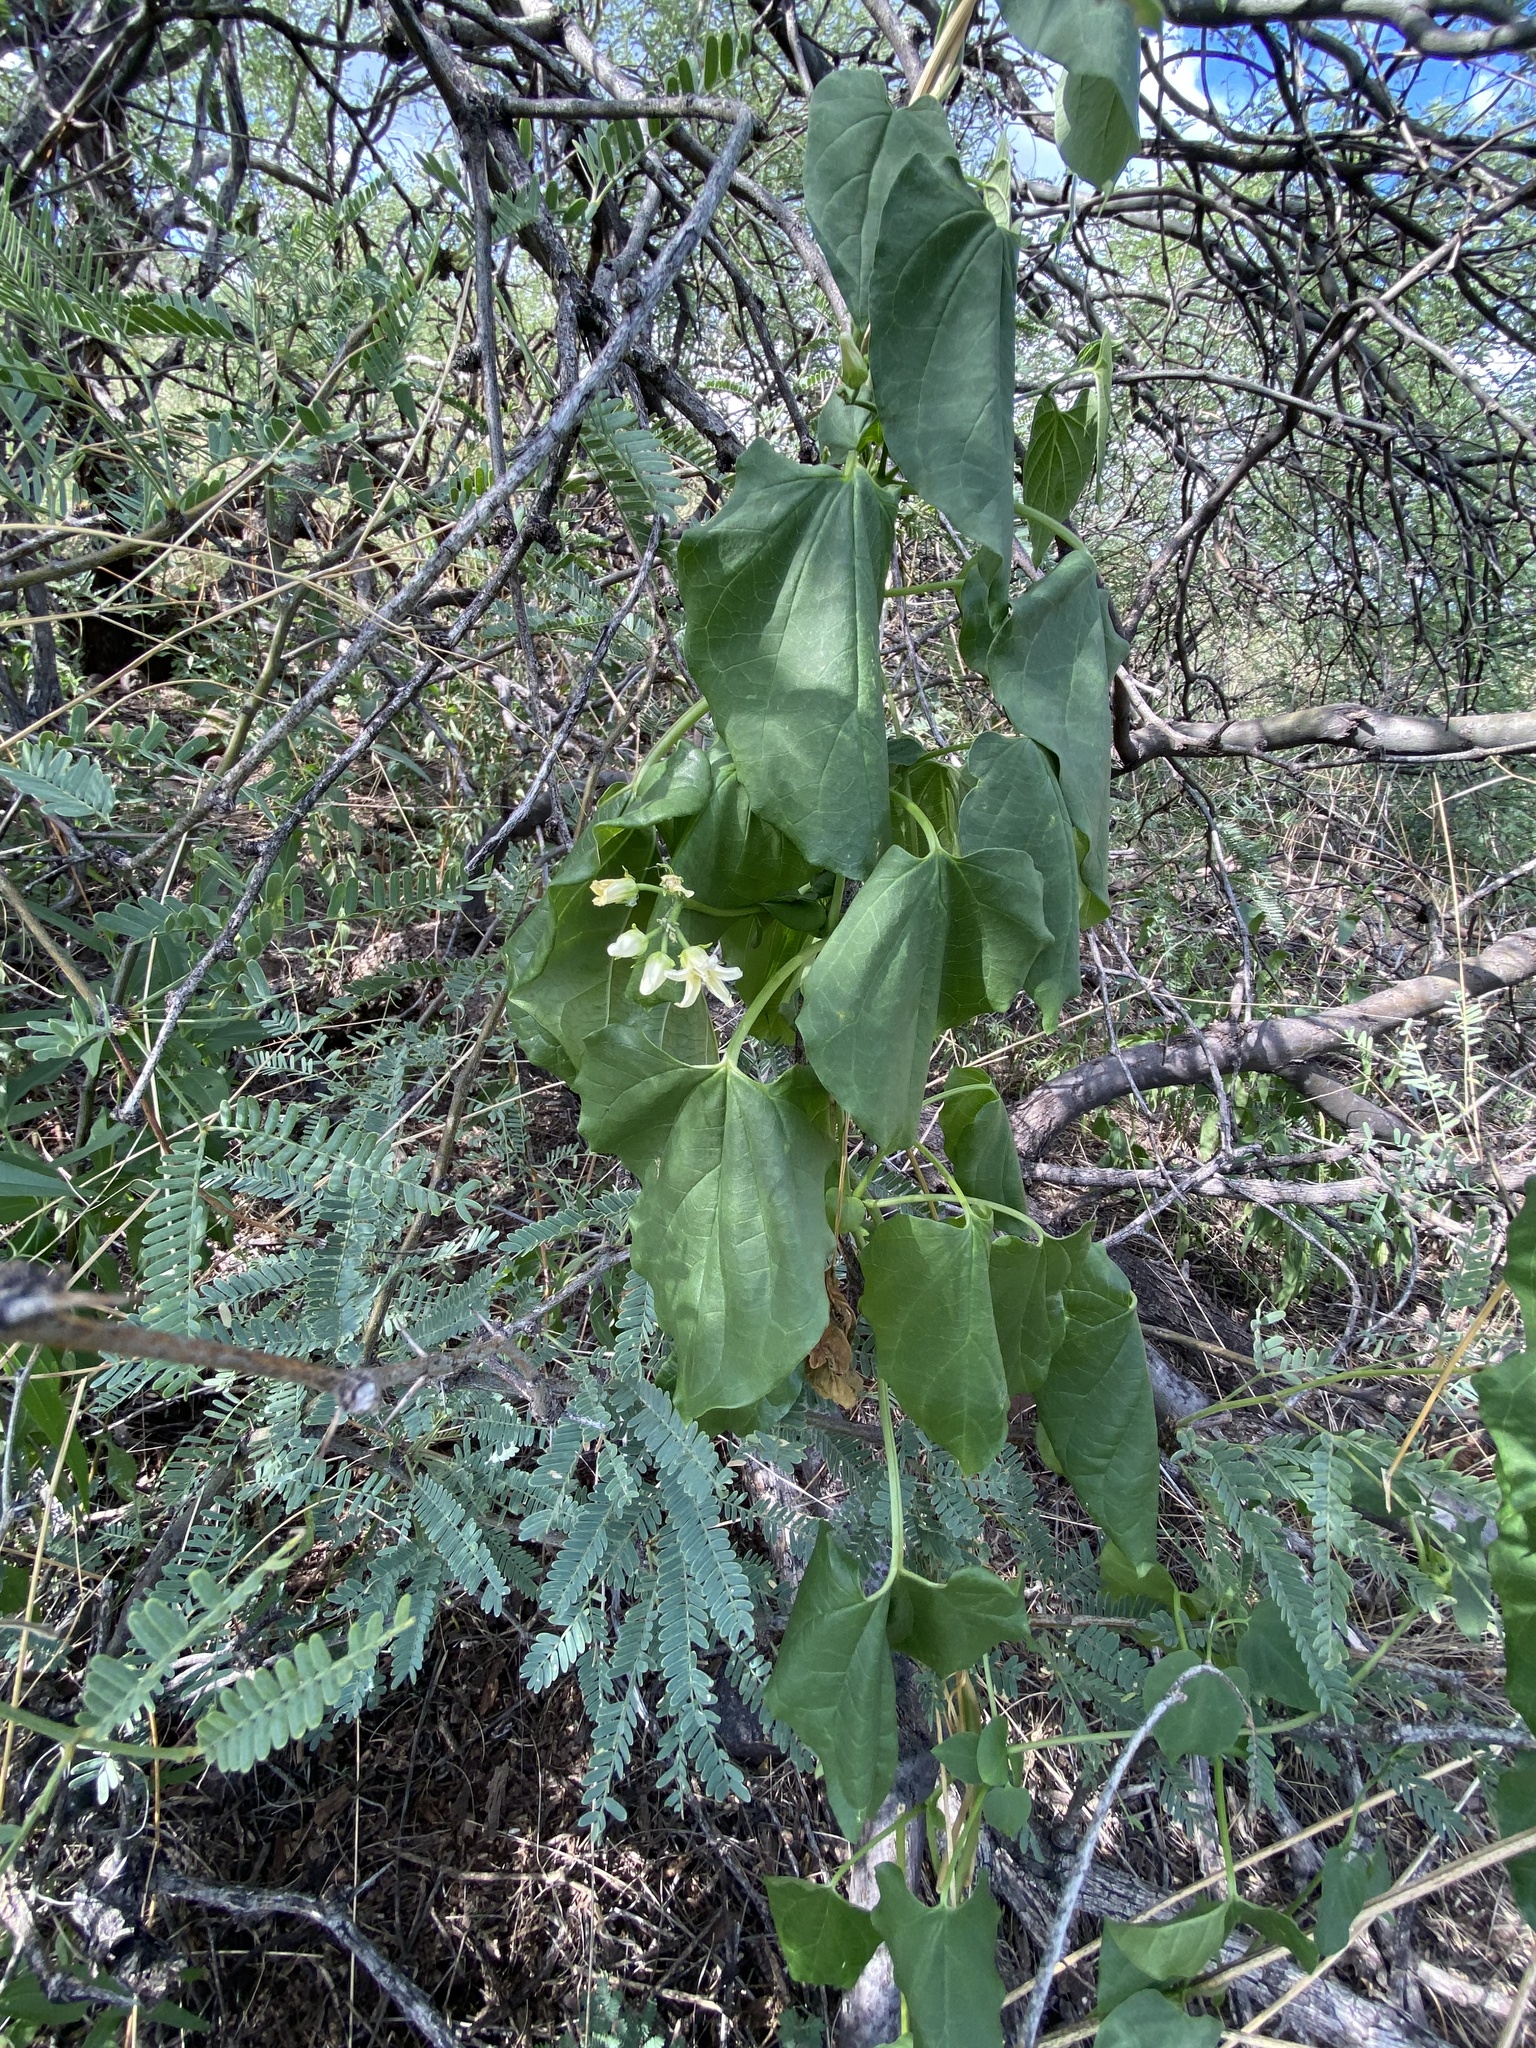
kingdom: Plantae
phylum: Tracheophyta
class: Magnoliopsida
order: Gentianales
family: Apocynaceae
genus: Cynanchum
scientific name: Cynanchum ligulatum
